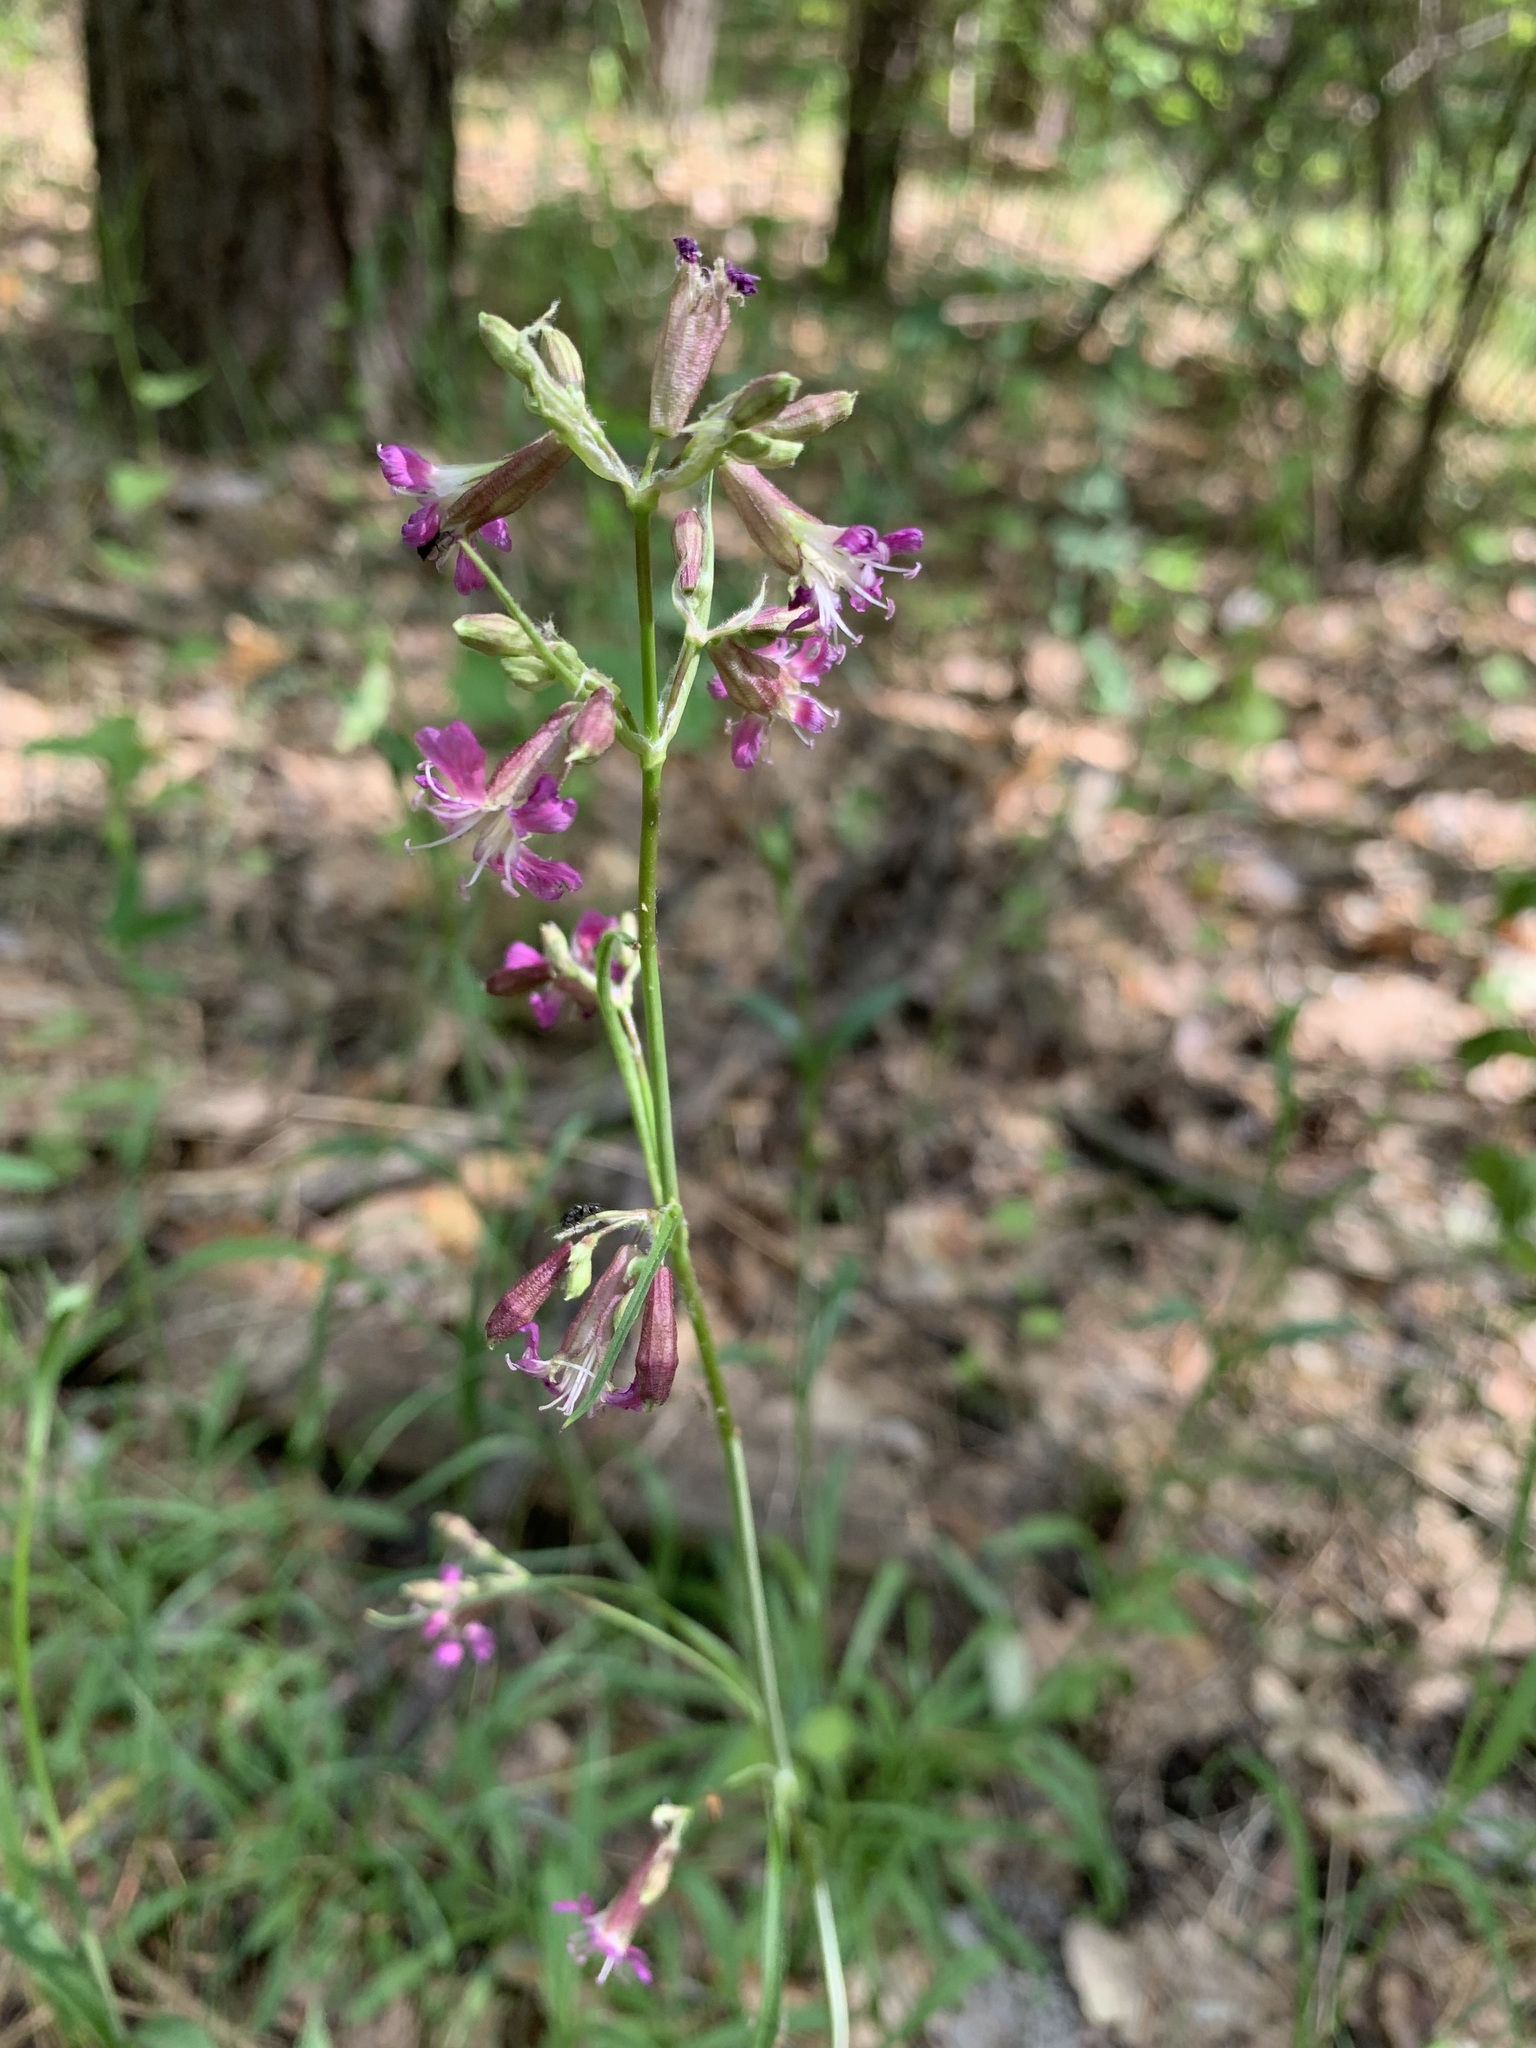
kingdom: Plantae
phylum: Tracheophyta
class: Magnoliopsida
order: Caryophyllales
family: Caryophyllaceae
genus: Viscaria
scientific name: Viscaria vulgaris
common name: Clammy campion
